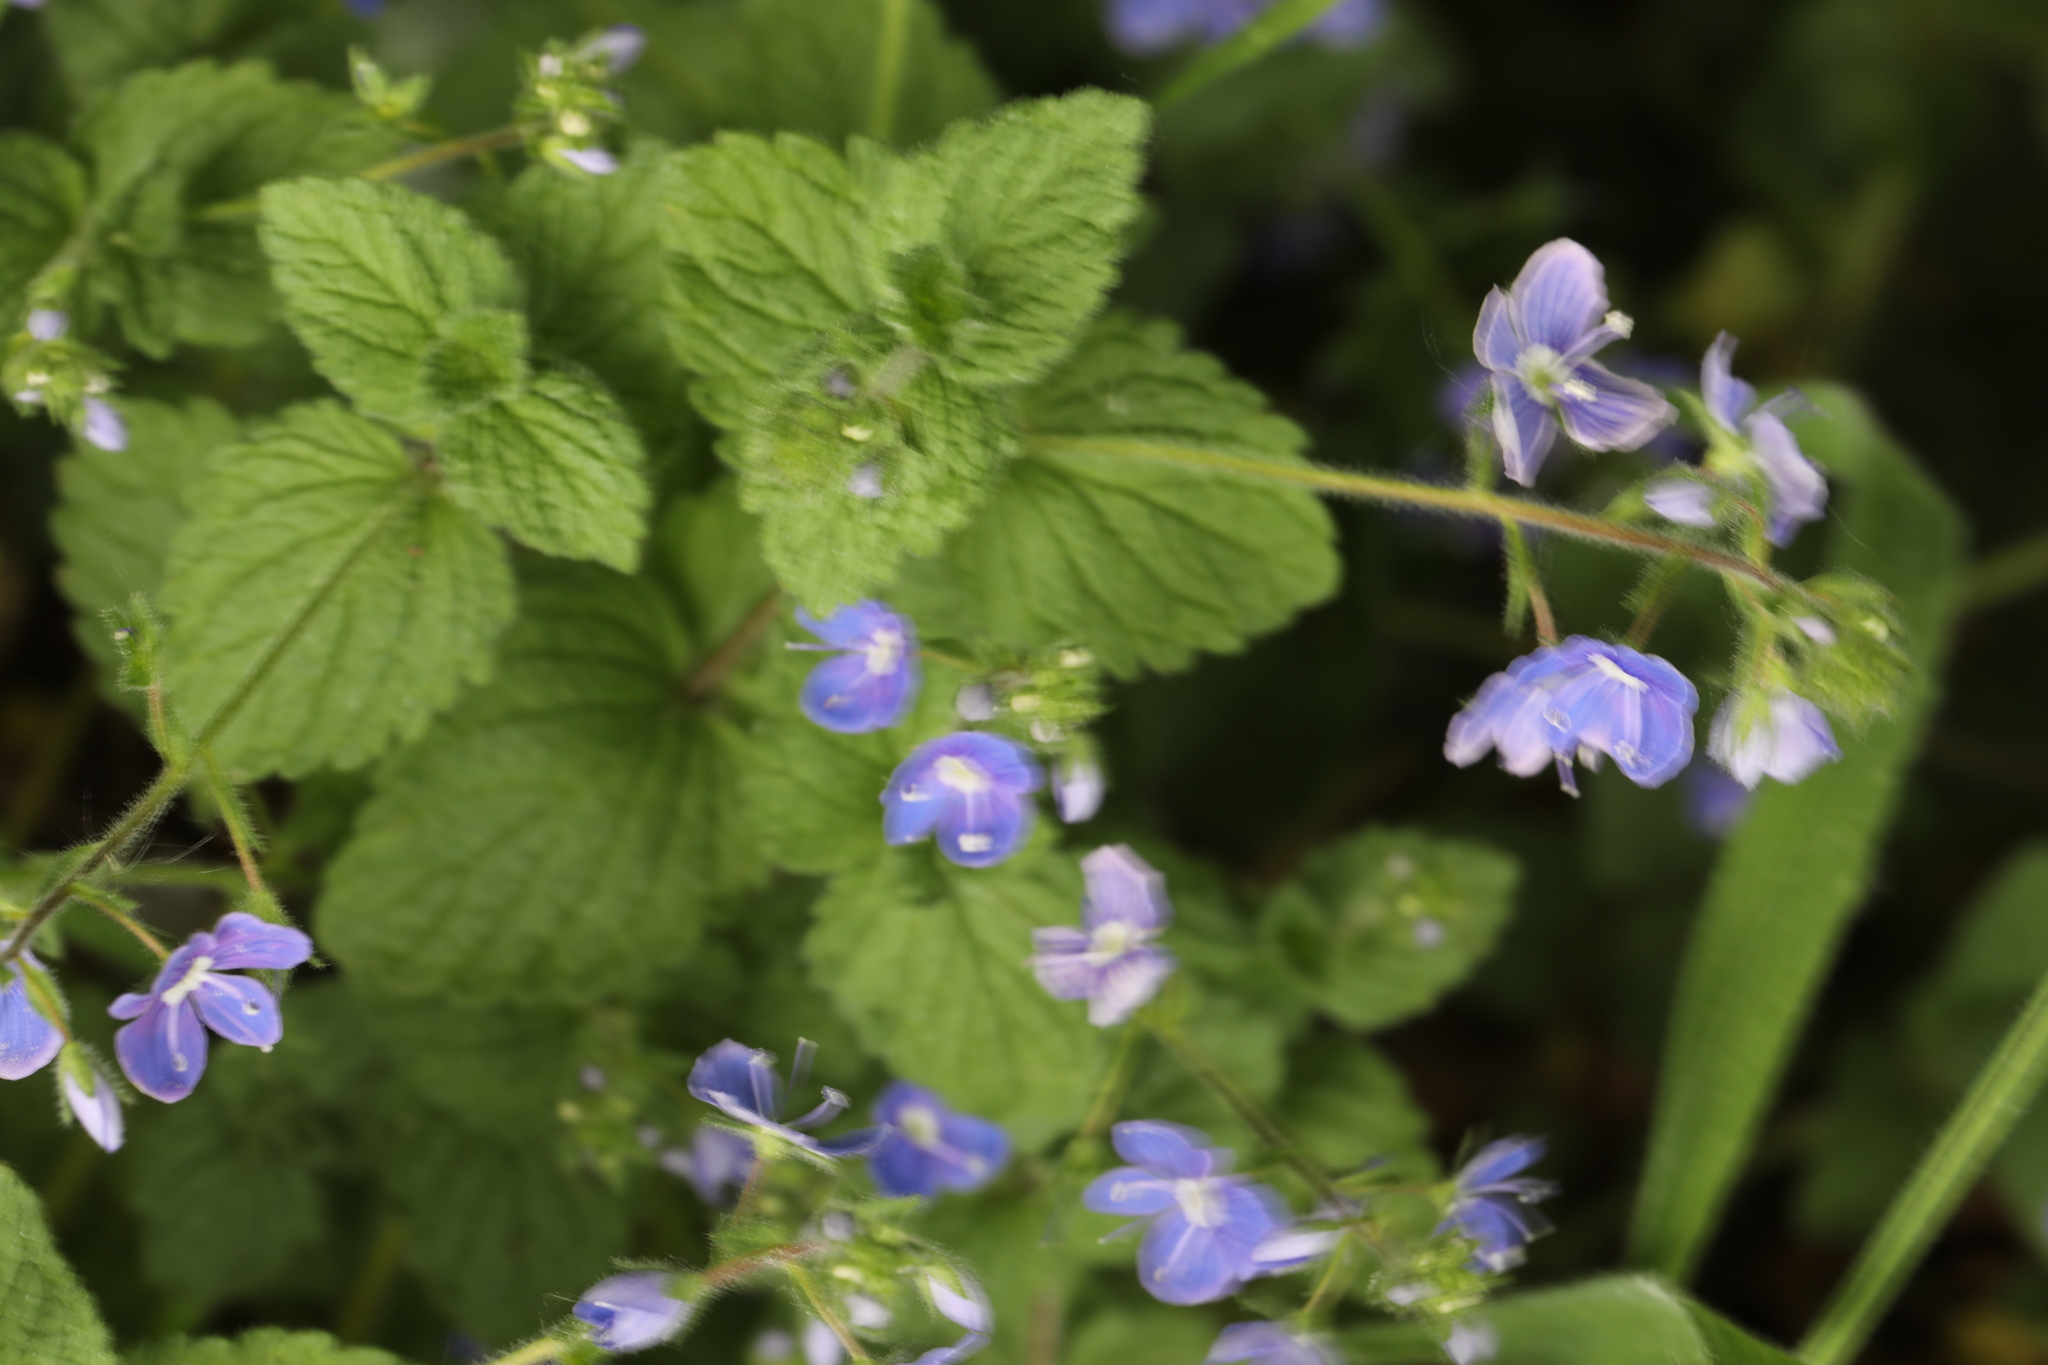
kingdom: Plantae
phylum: Tracheophyta
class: Magnoliopsida
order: Lamiales
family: Plantaginaceae
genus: Veronica
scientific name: Veronica chamaedrys
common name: Germander speedwell
